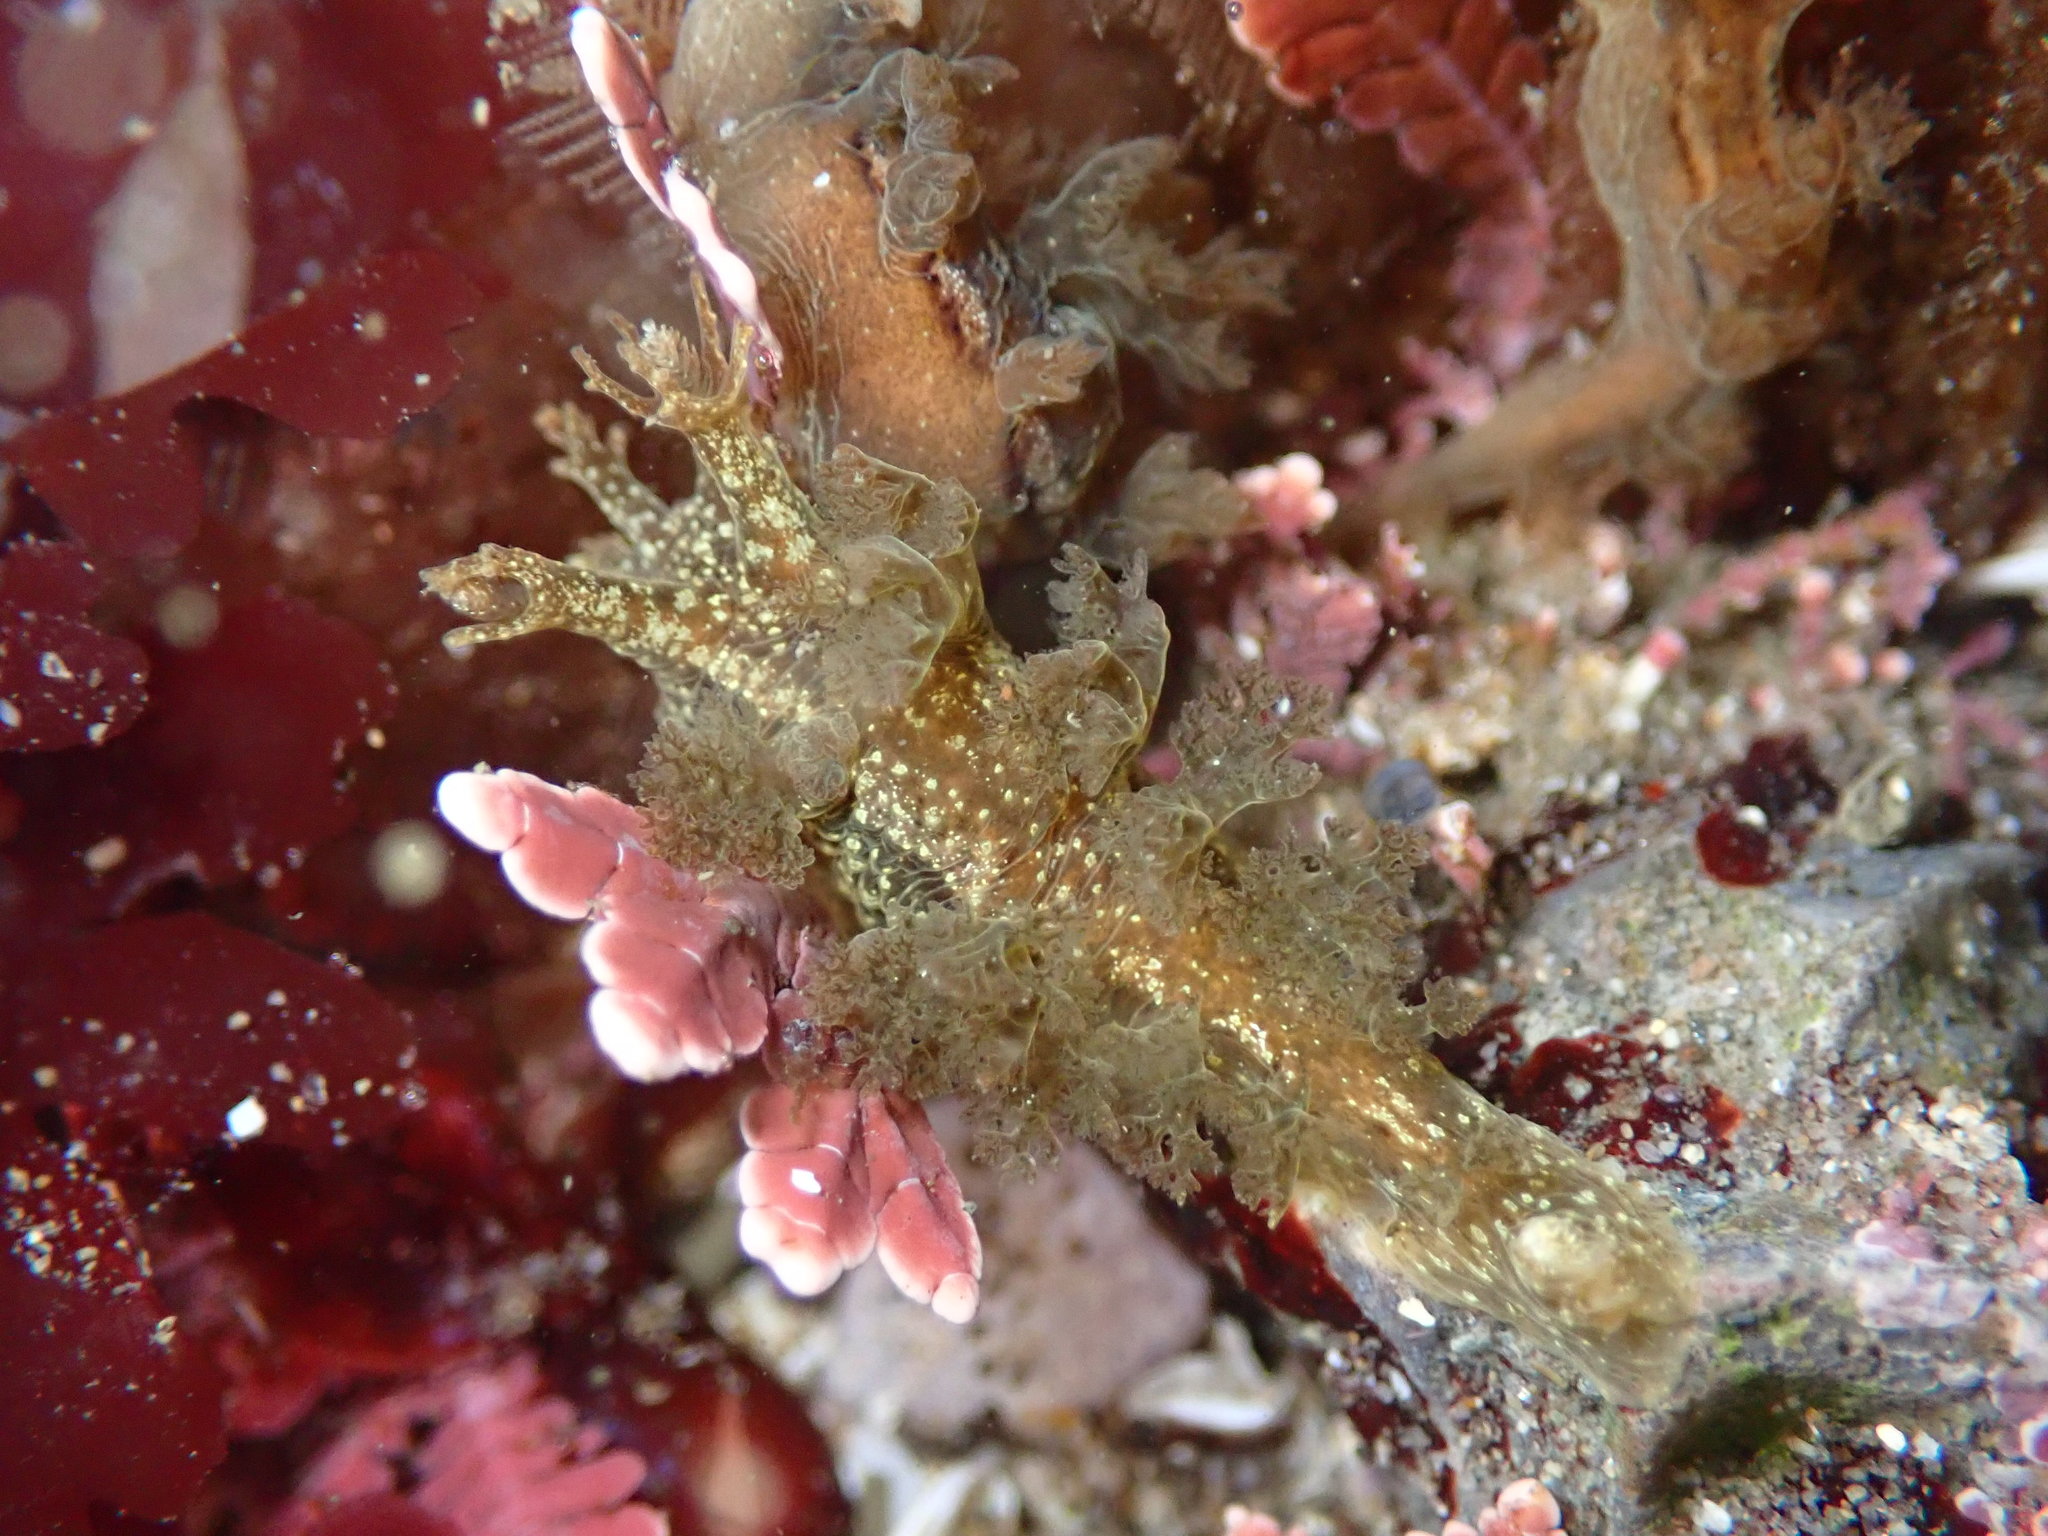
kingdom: Animalia
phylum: Mollusca
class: Gastropoda
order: Nudibranchia
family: Dendronotidae
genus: Dendronotus
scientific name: Dendronotus subramosus
